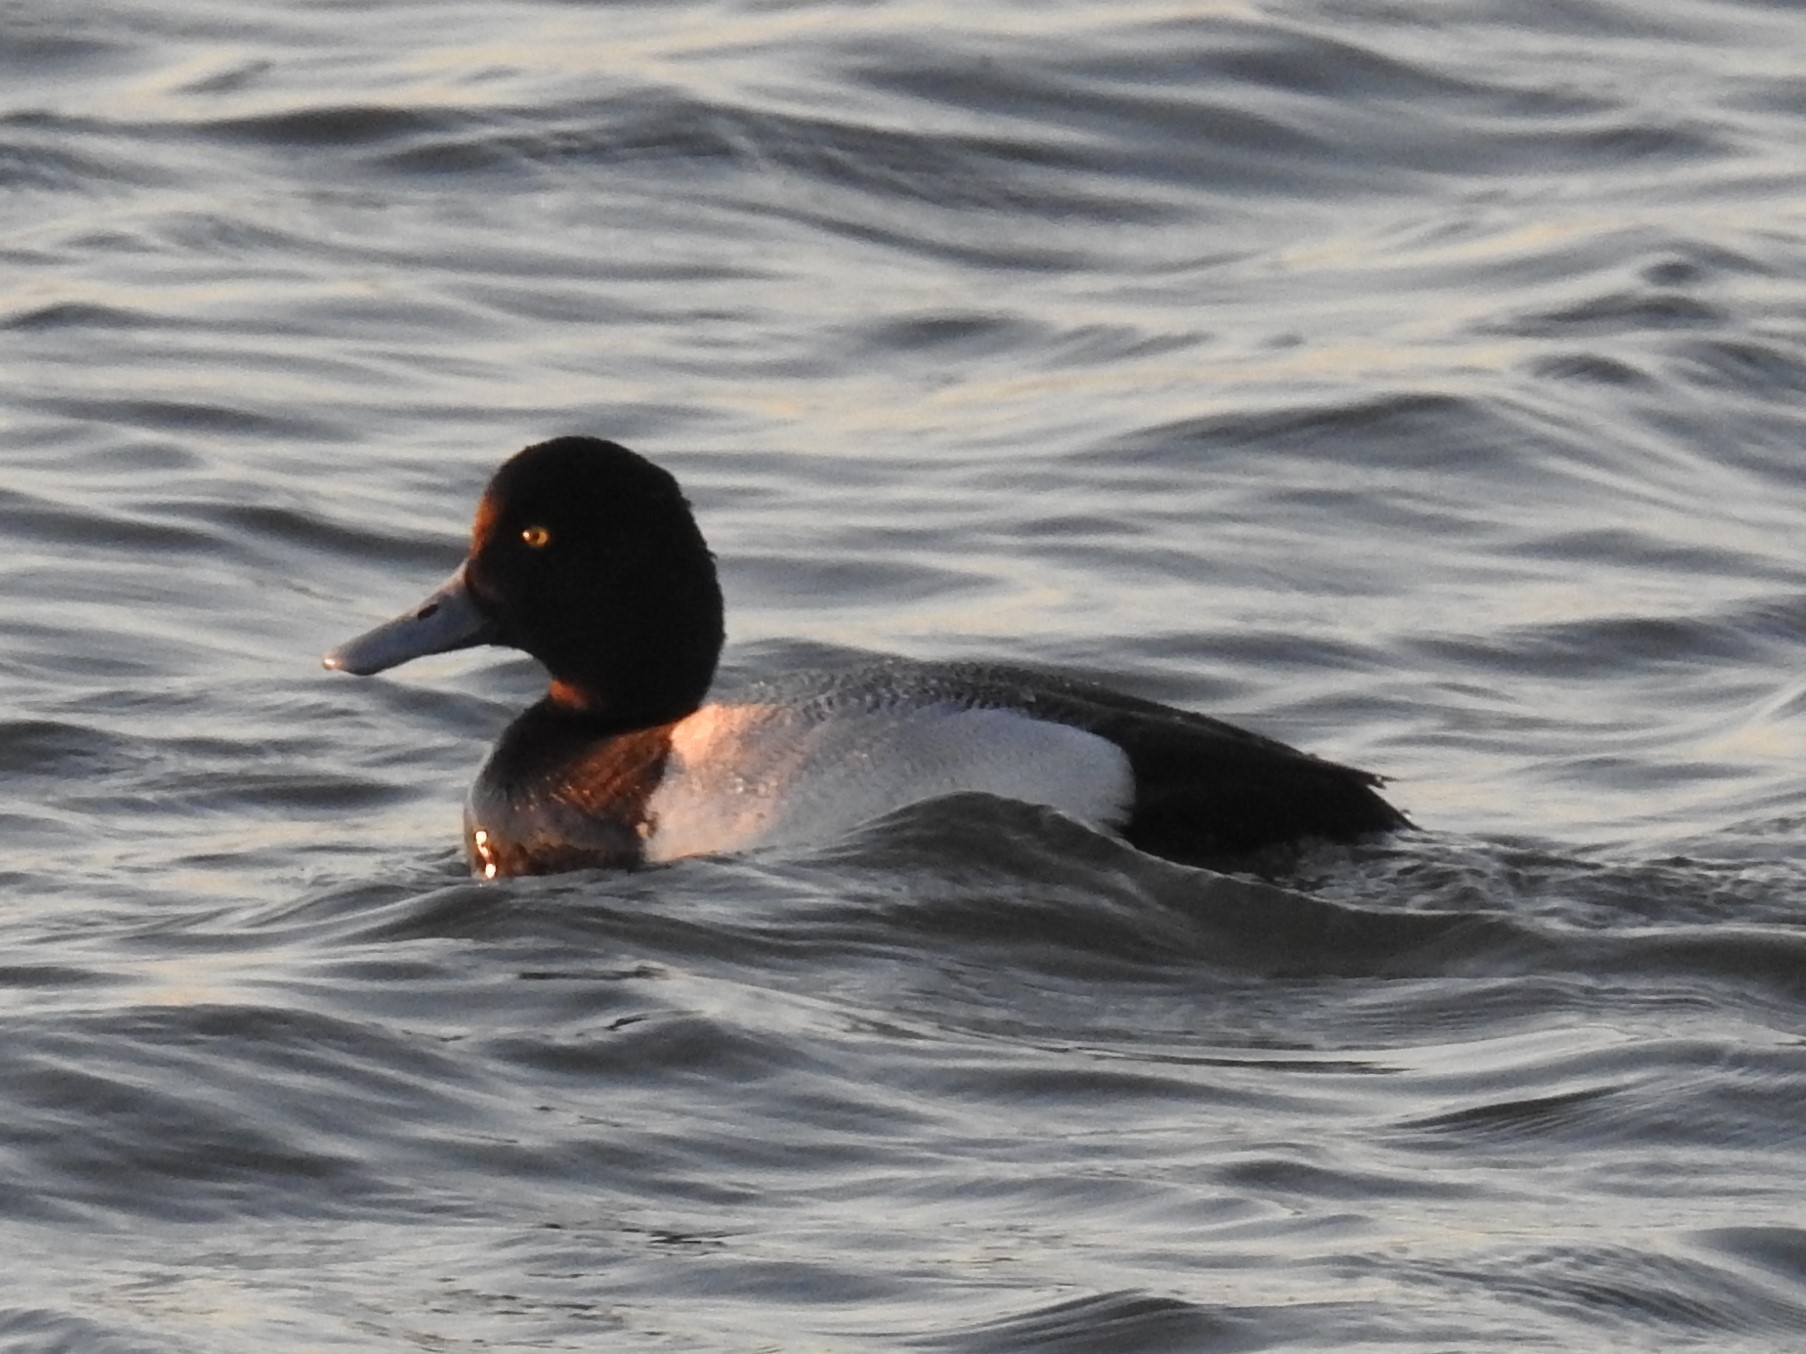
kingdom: Animalia
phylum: Chordata
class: Aves
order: Anseriformes
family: Anatidae
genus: Aythya
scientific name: Aythya marila
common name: Greater scaup
